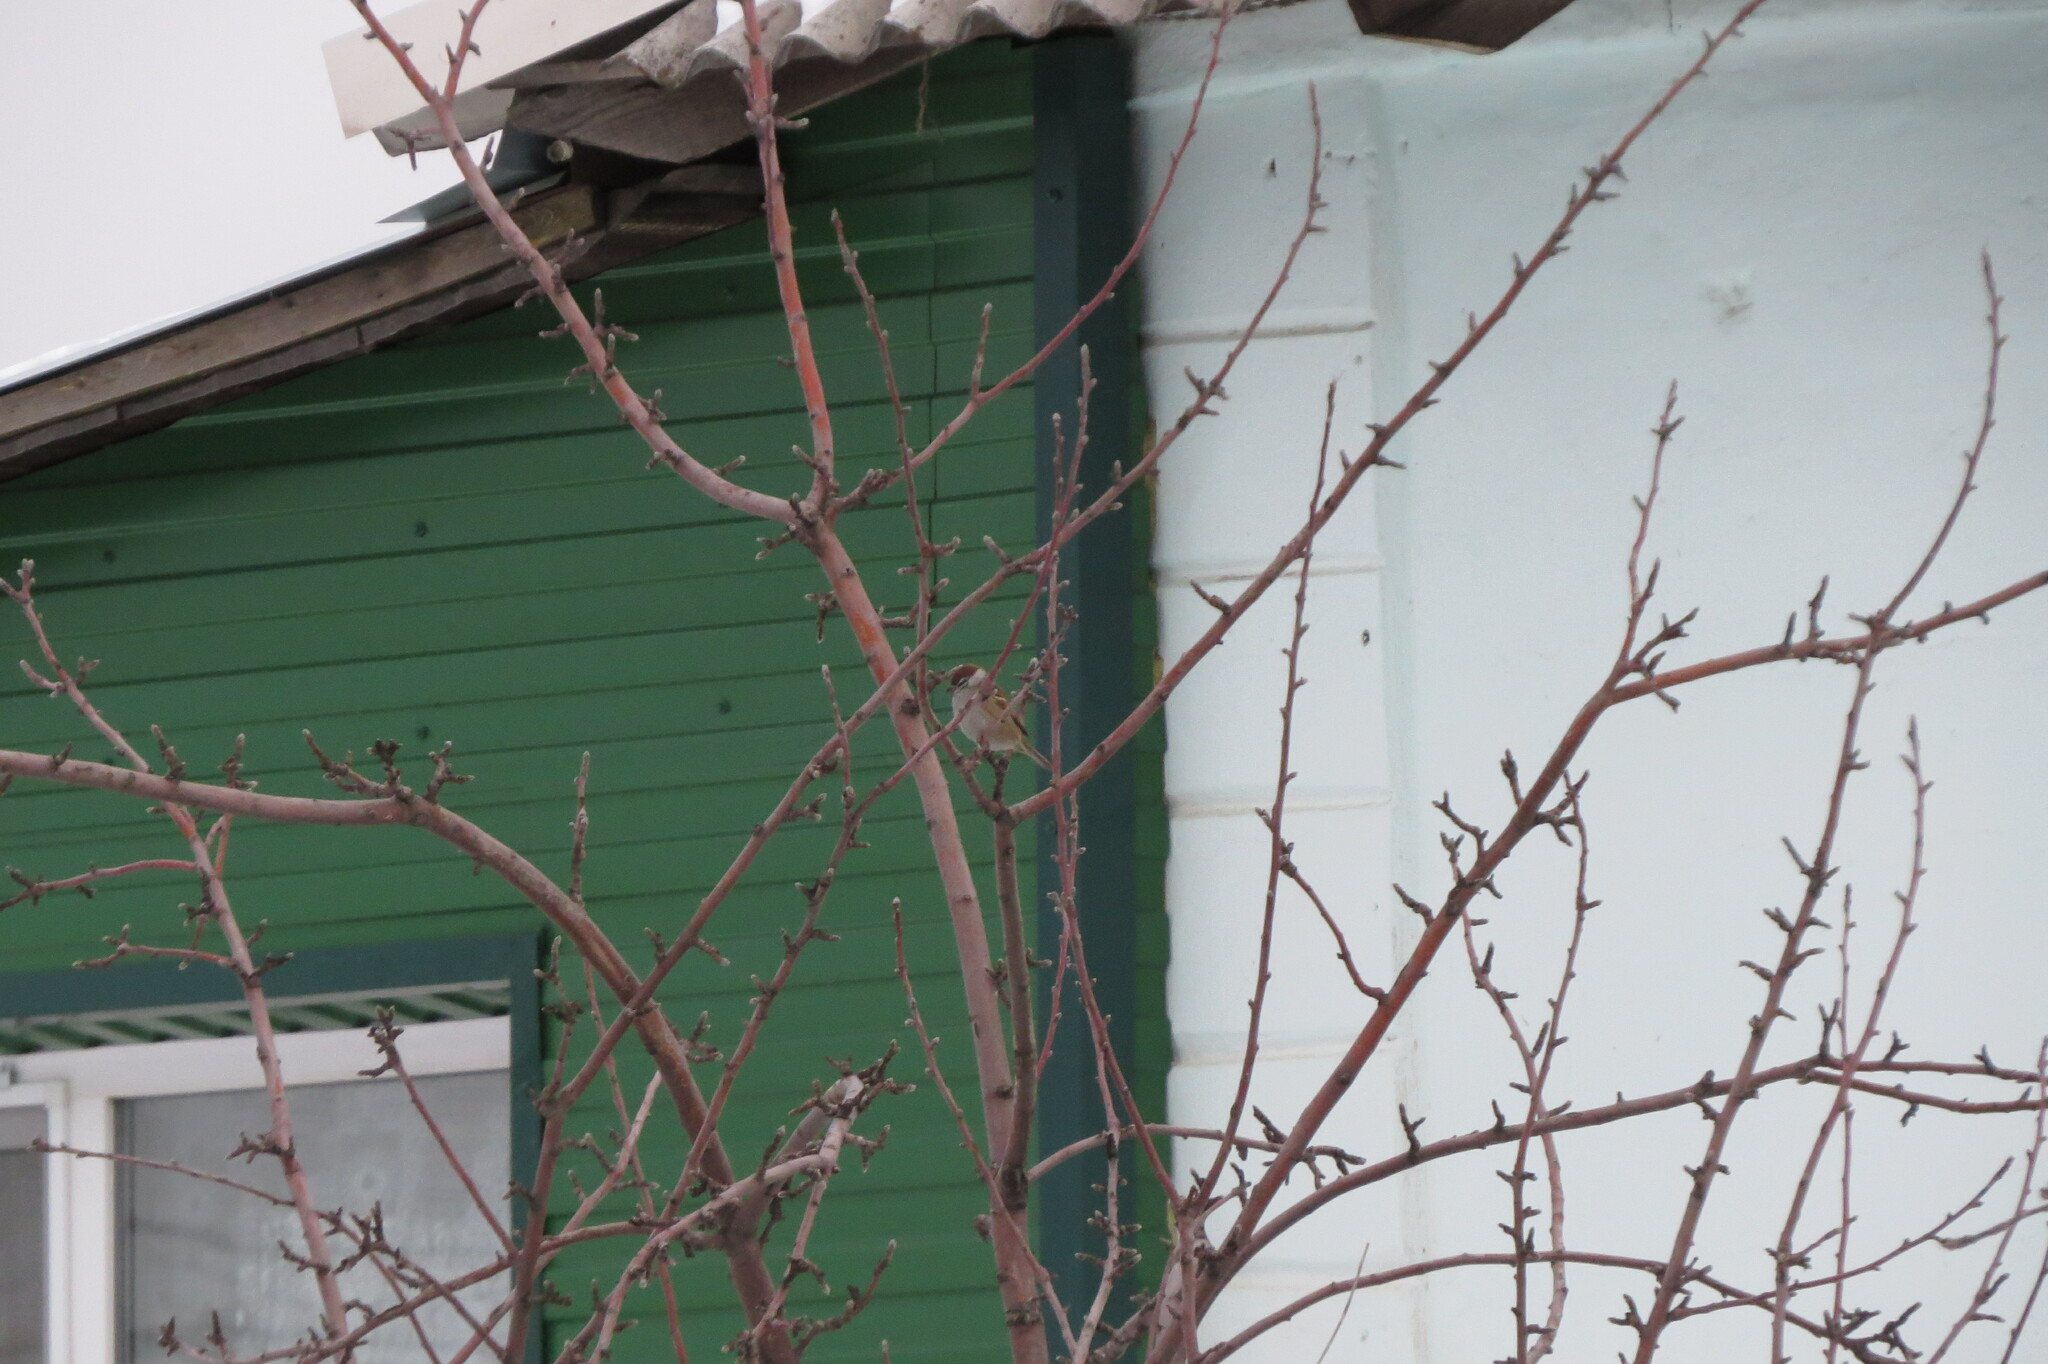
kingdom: Animalia
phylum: Chordata
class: Aves
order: Passeriformes
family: Passeridae
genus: Passer
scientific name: Passer montanus
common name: Eurasian tree sparrow
